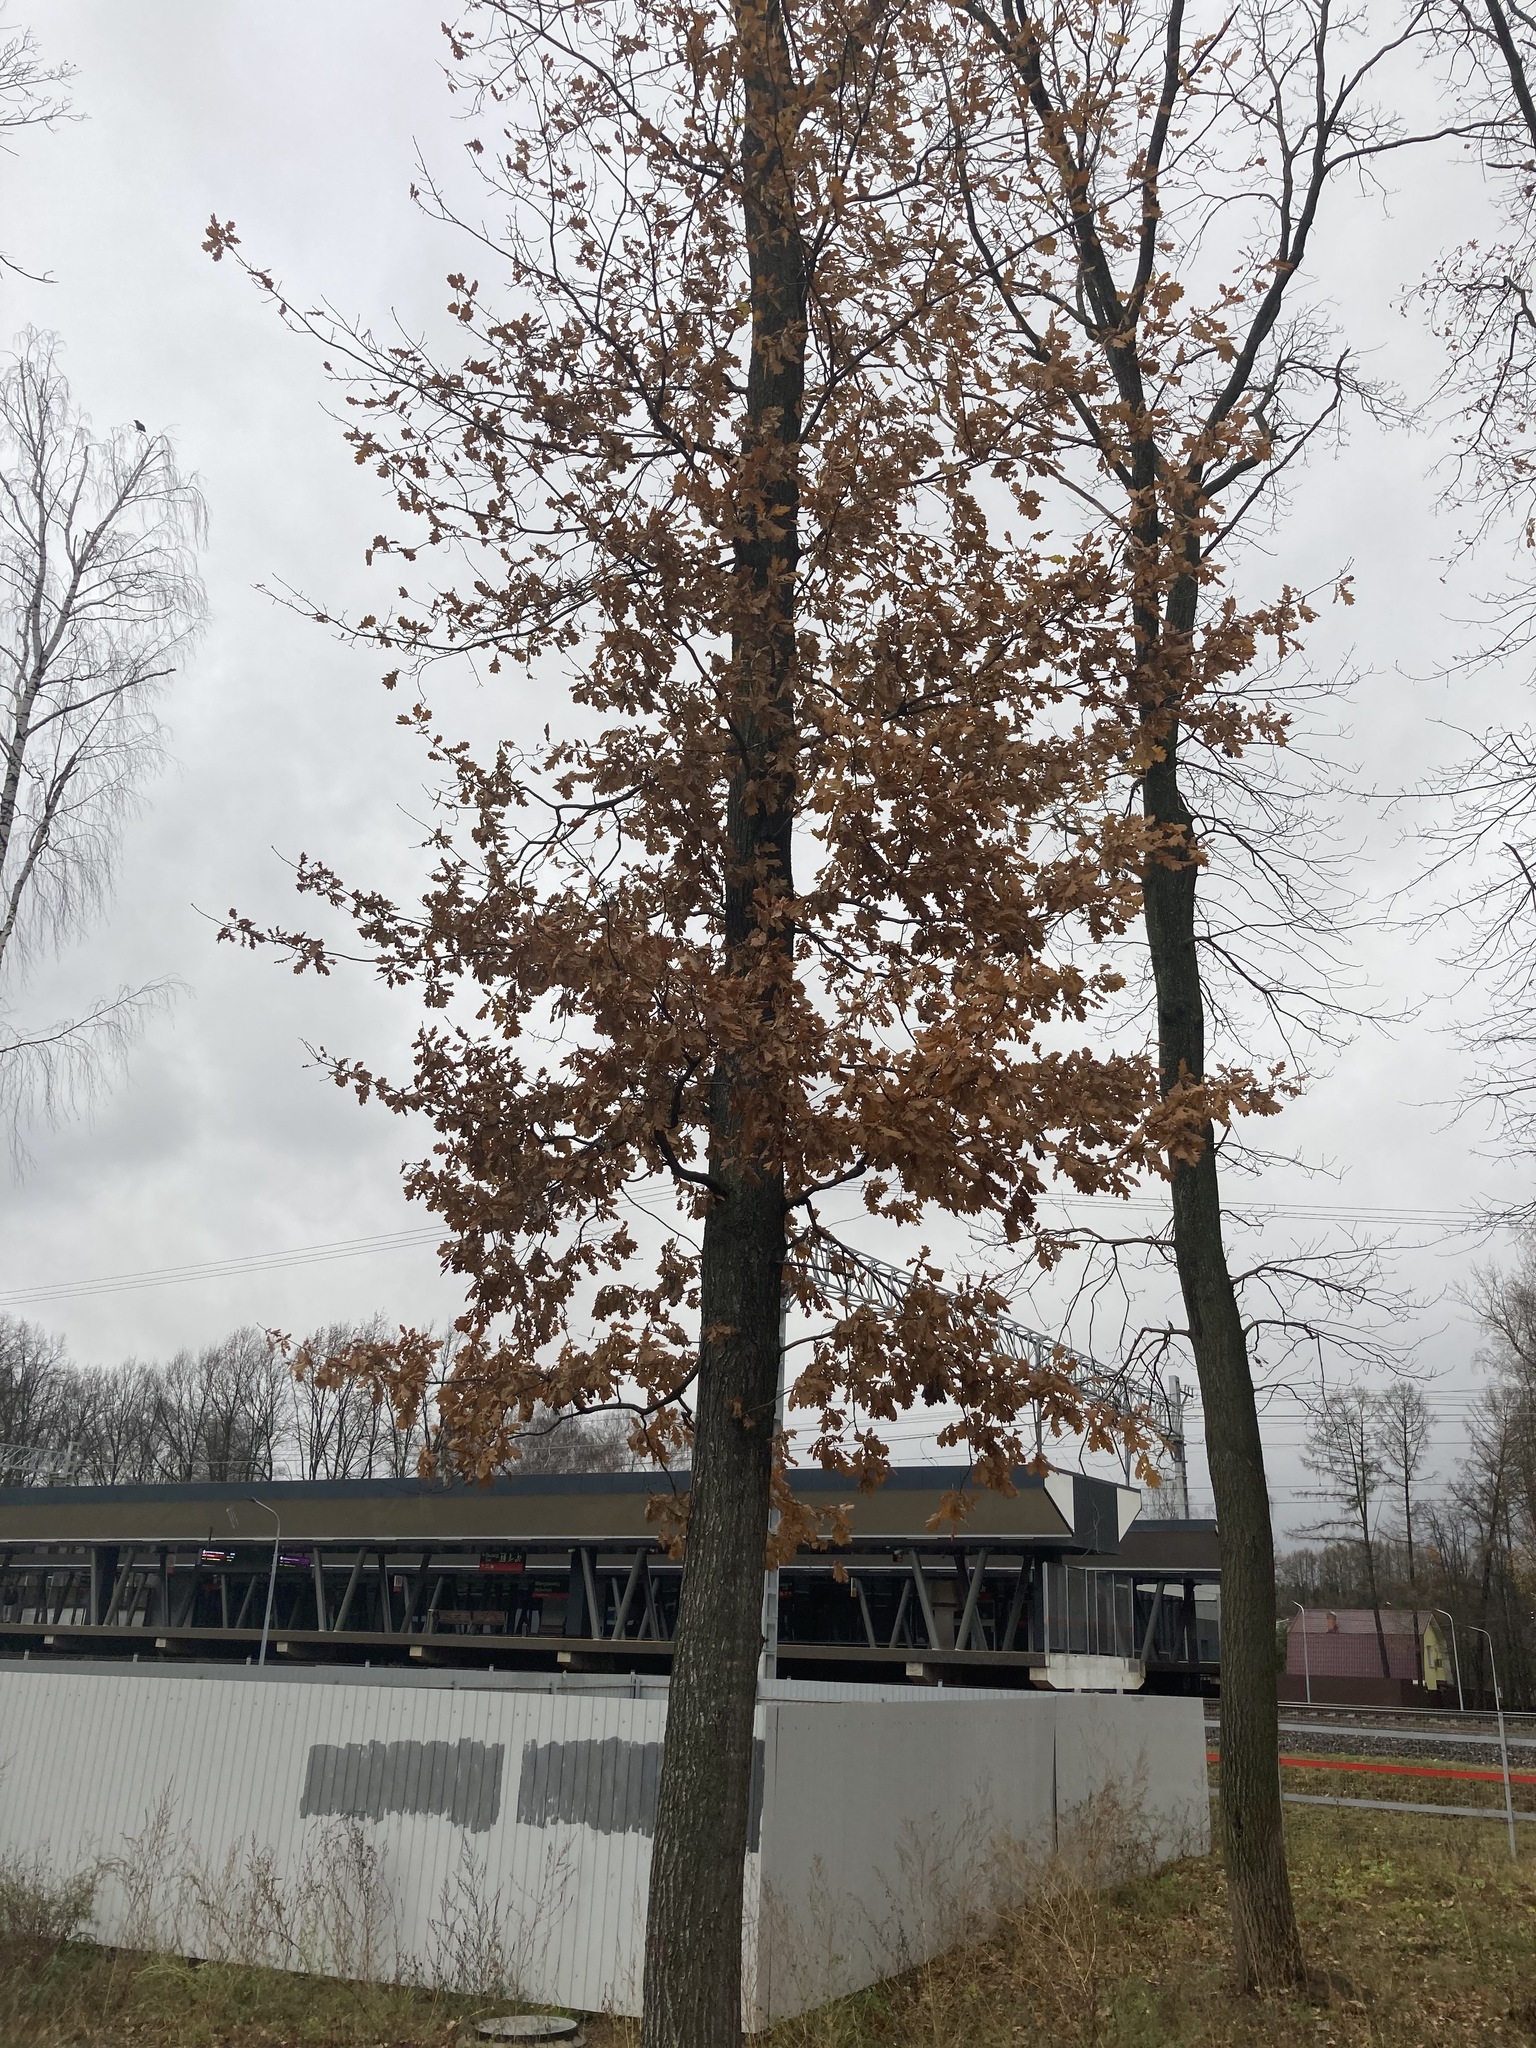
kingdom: Plantae
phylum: Tracheophyta
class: Magnoliopsida
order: Fagales
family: Fagaceae
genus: Quercus
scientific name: Quercus robur
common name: Pedunculate oak
